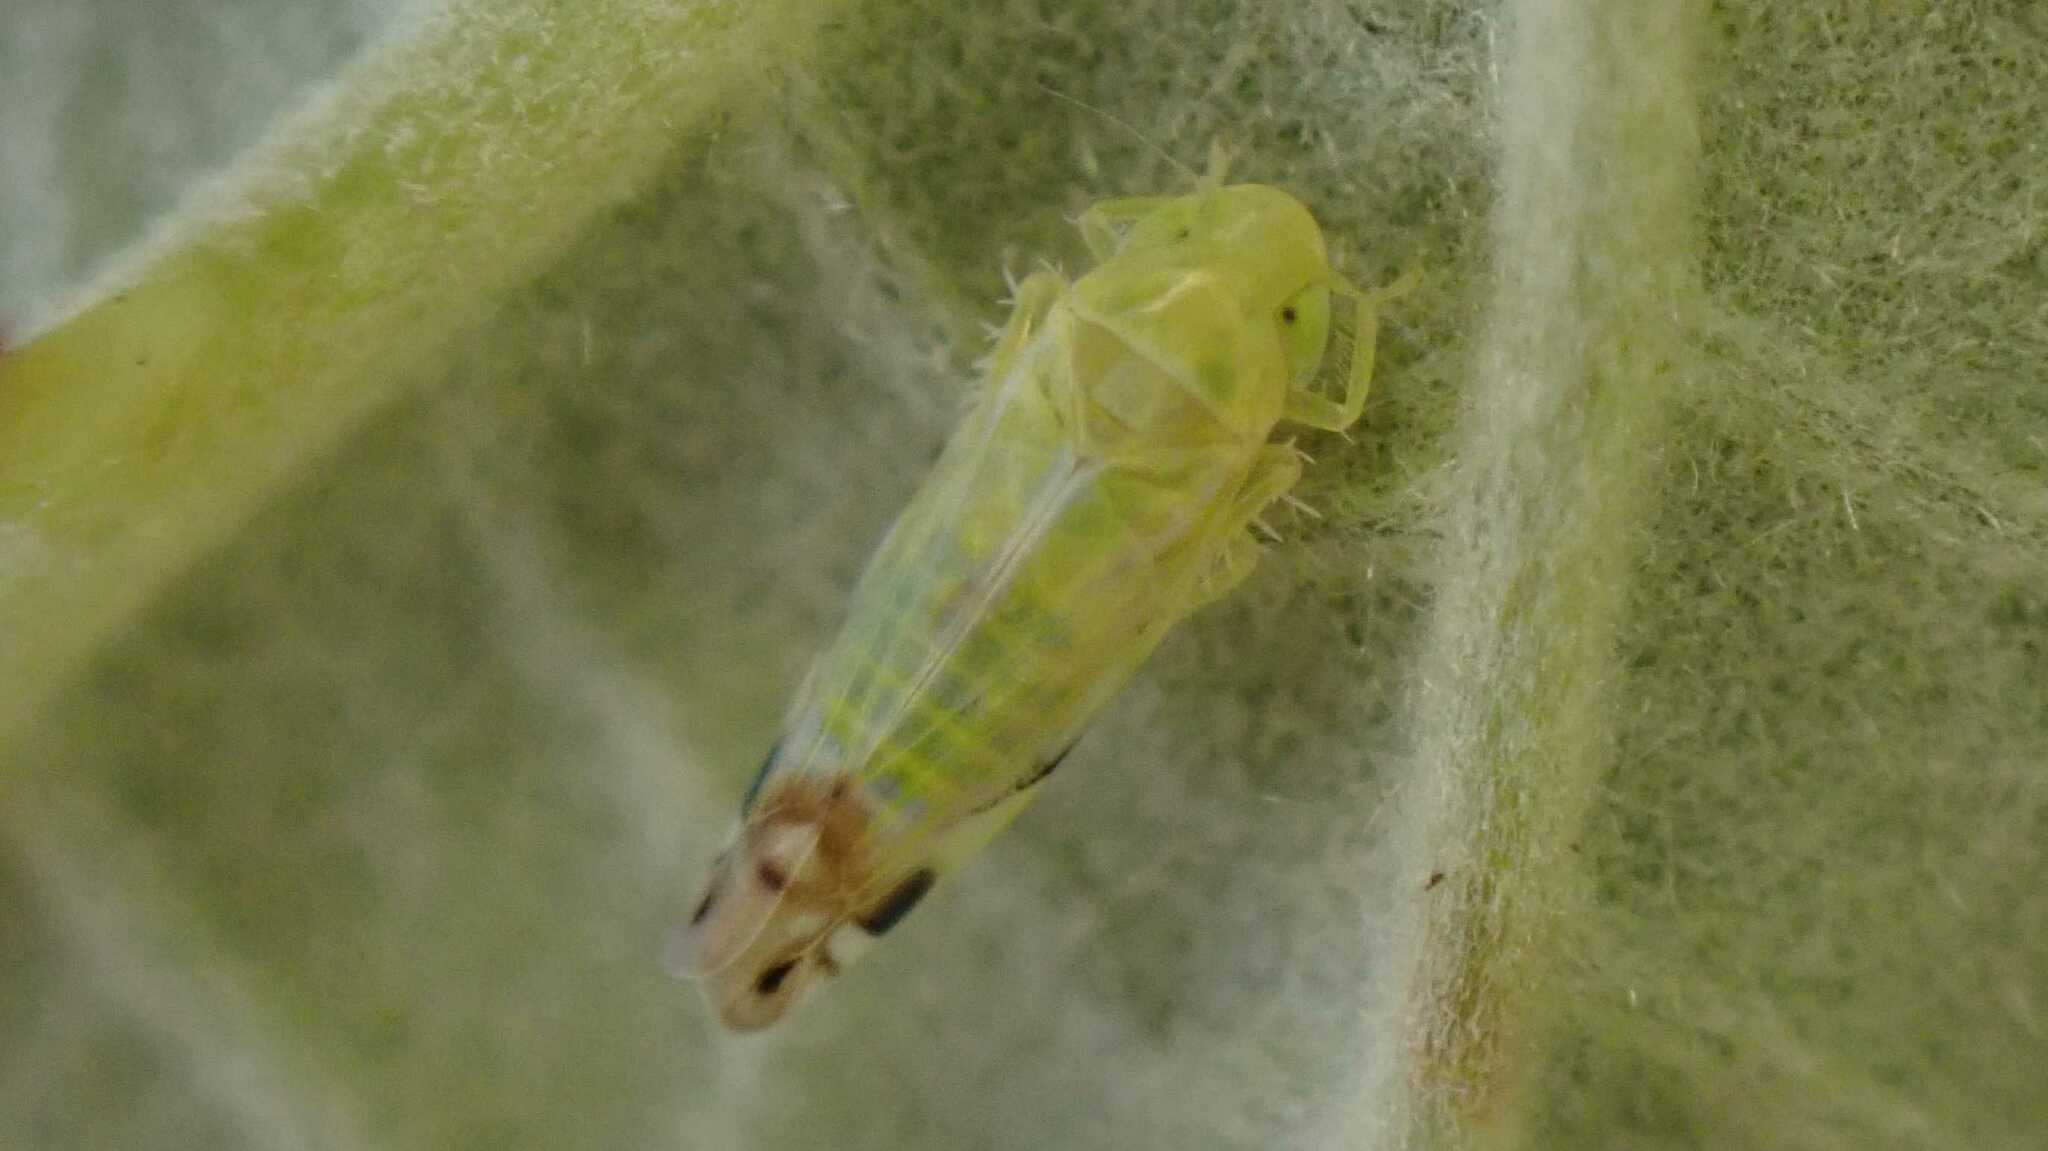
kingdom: Animalia
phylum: Arthropoda
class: Insecta
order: Hemiptera
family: Cicadellidae
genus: Zyginella
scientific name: Zyginella pulchra
